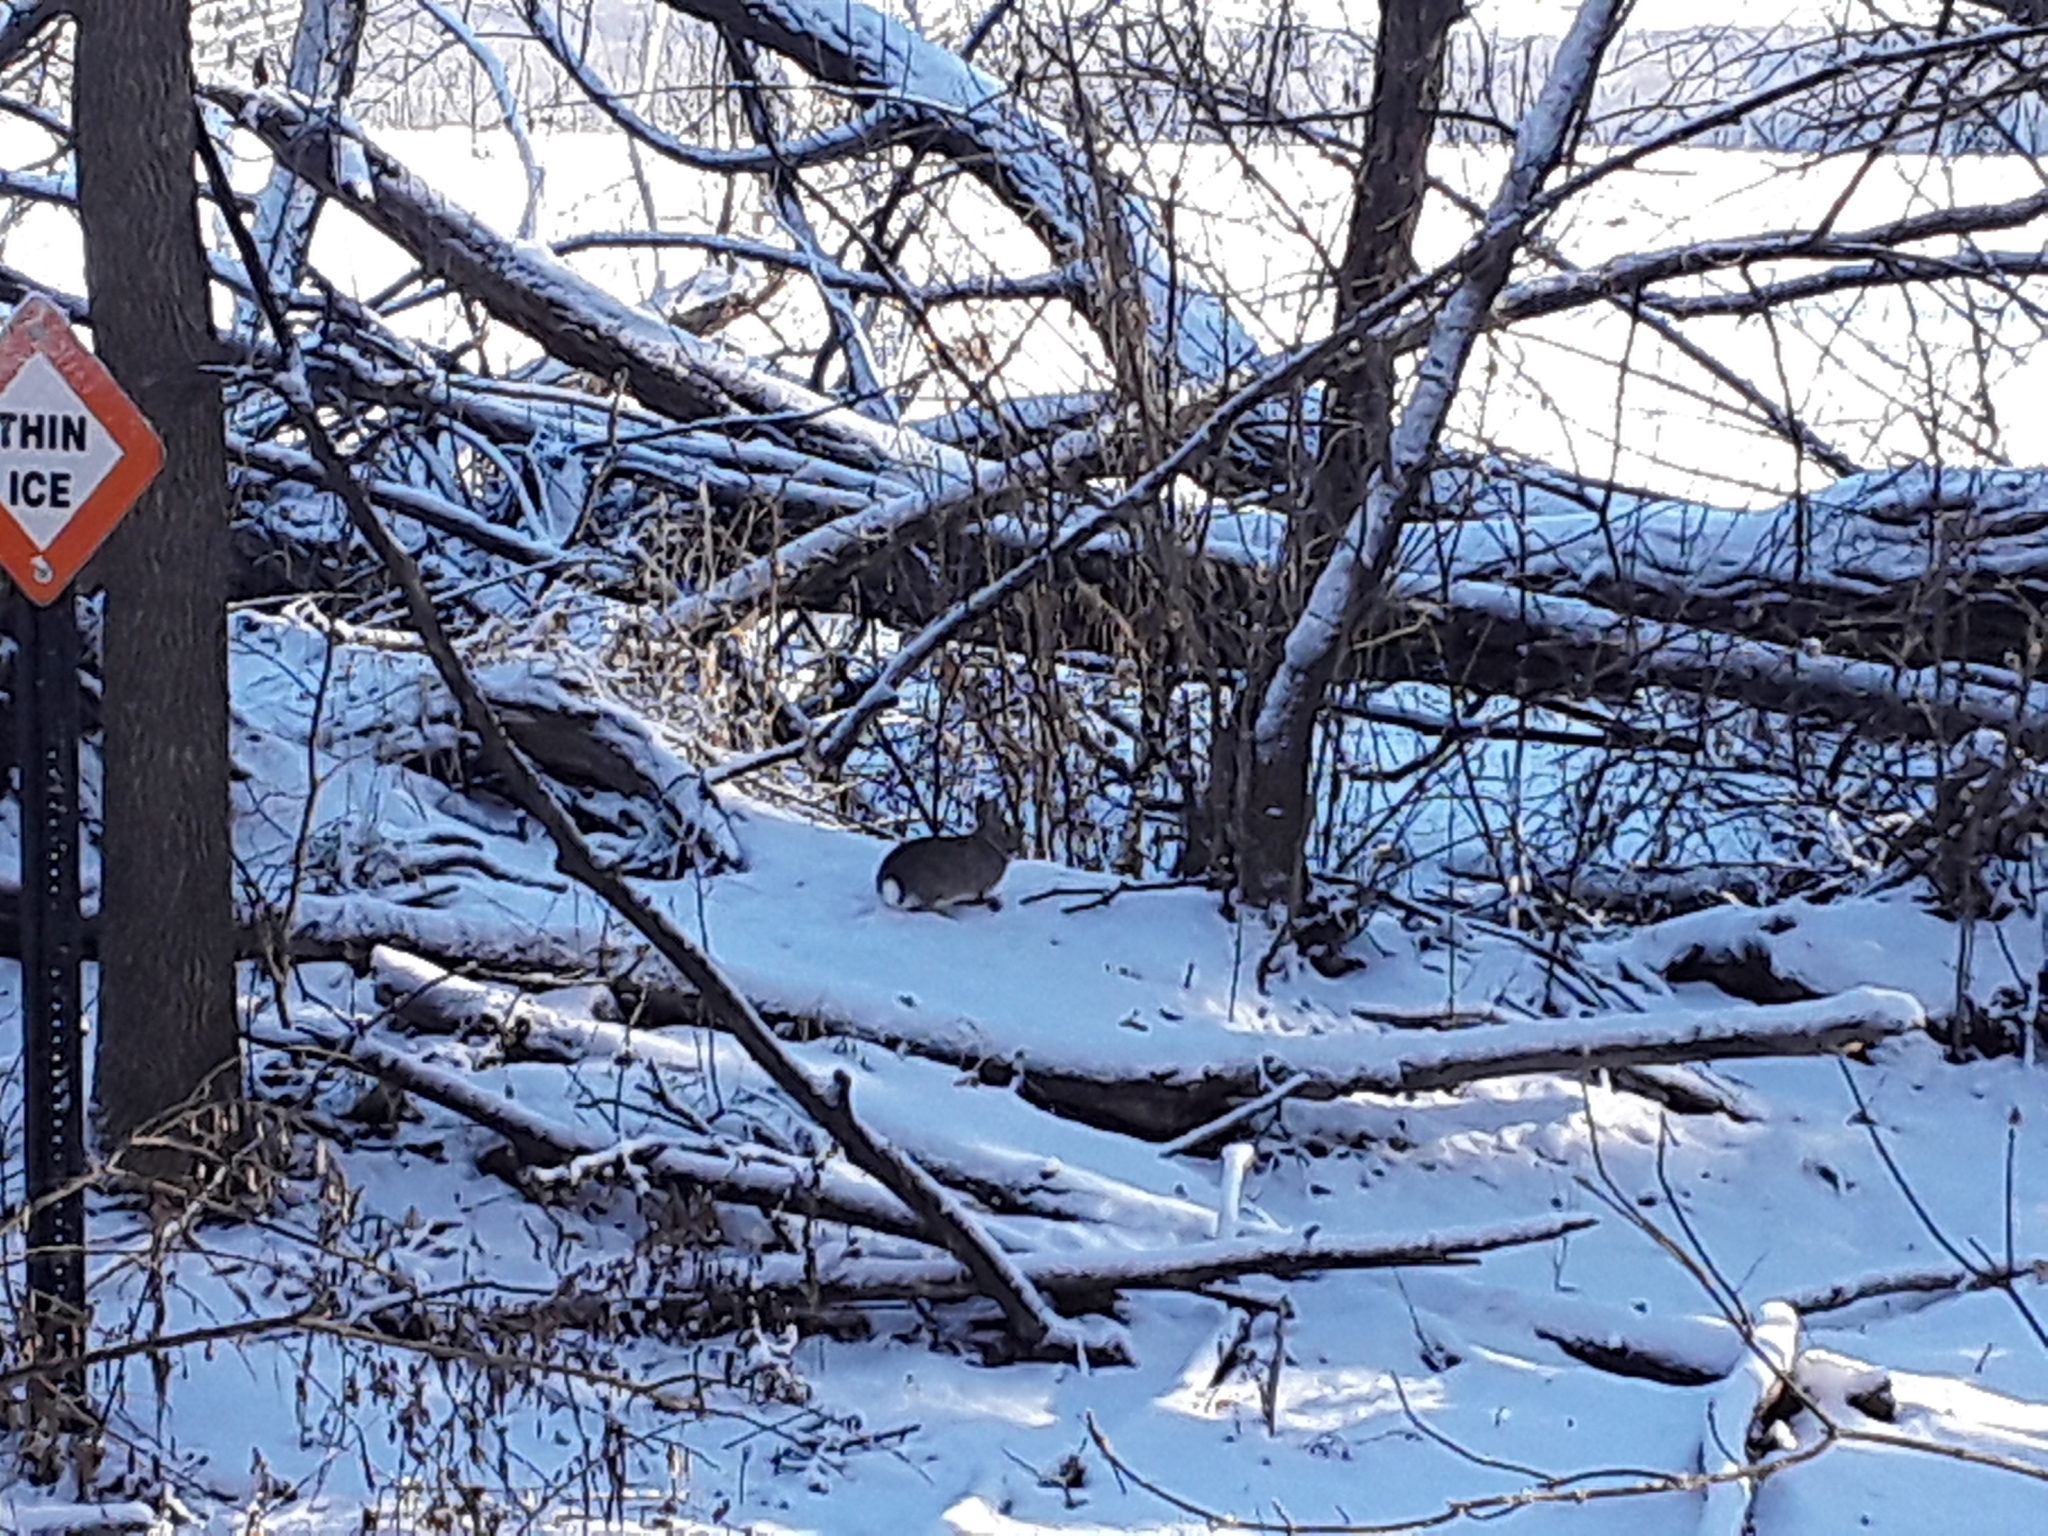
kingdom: Animalia
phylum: Chordata
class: Mammalia
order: Lagomorpha
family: Leporidae
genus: Sylvilagus
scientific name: Sylvilagus floridanus
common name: Eastern cottontail
